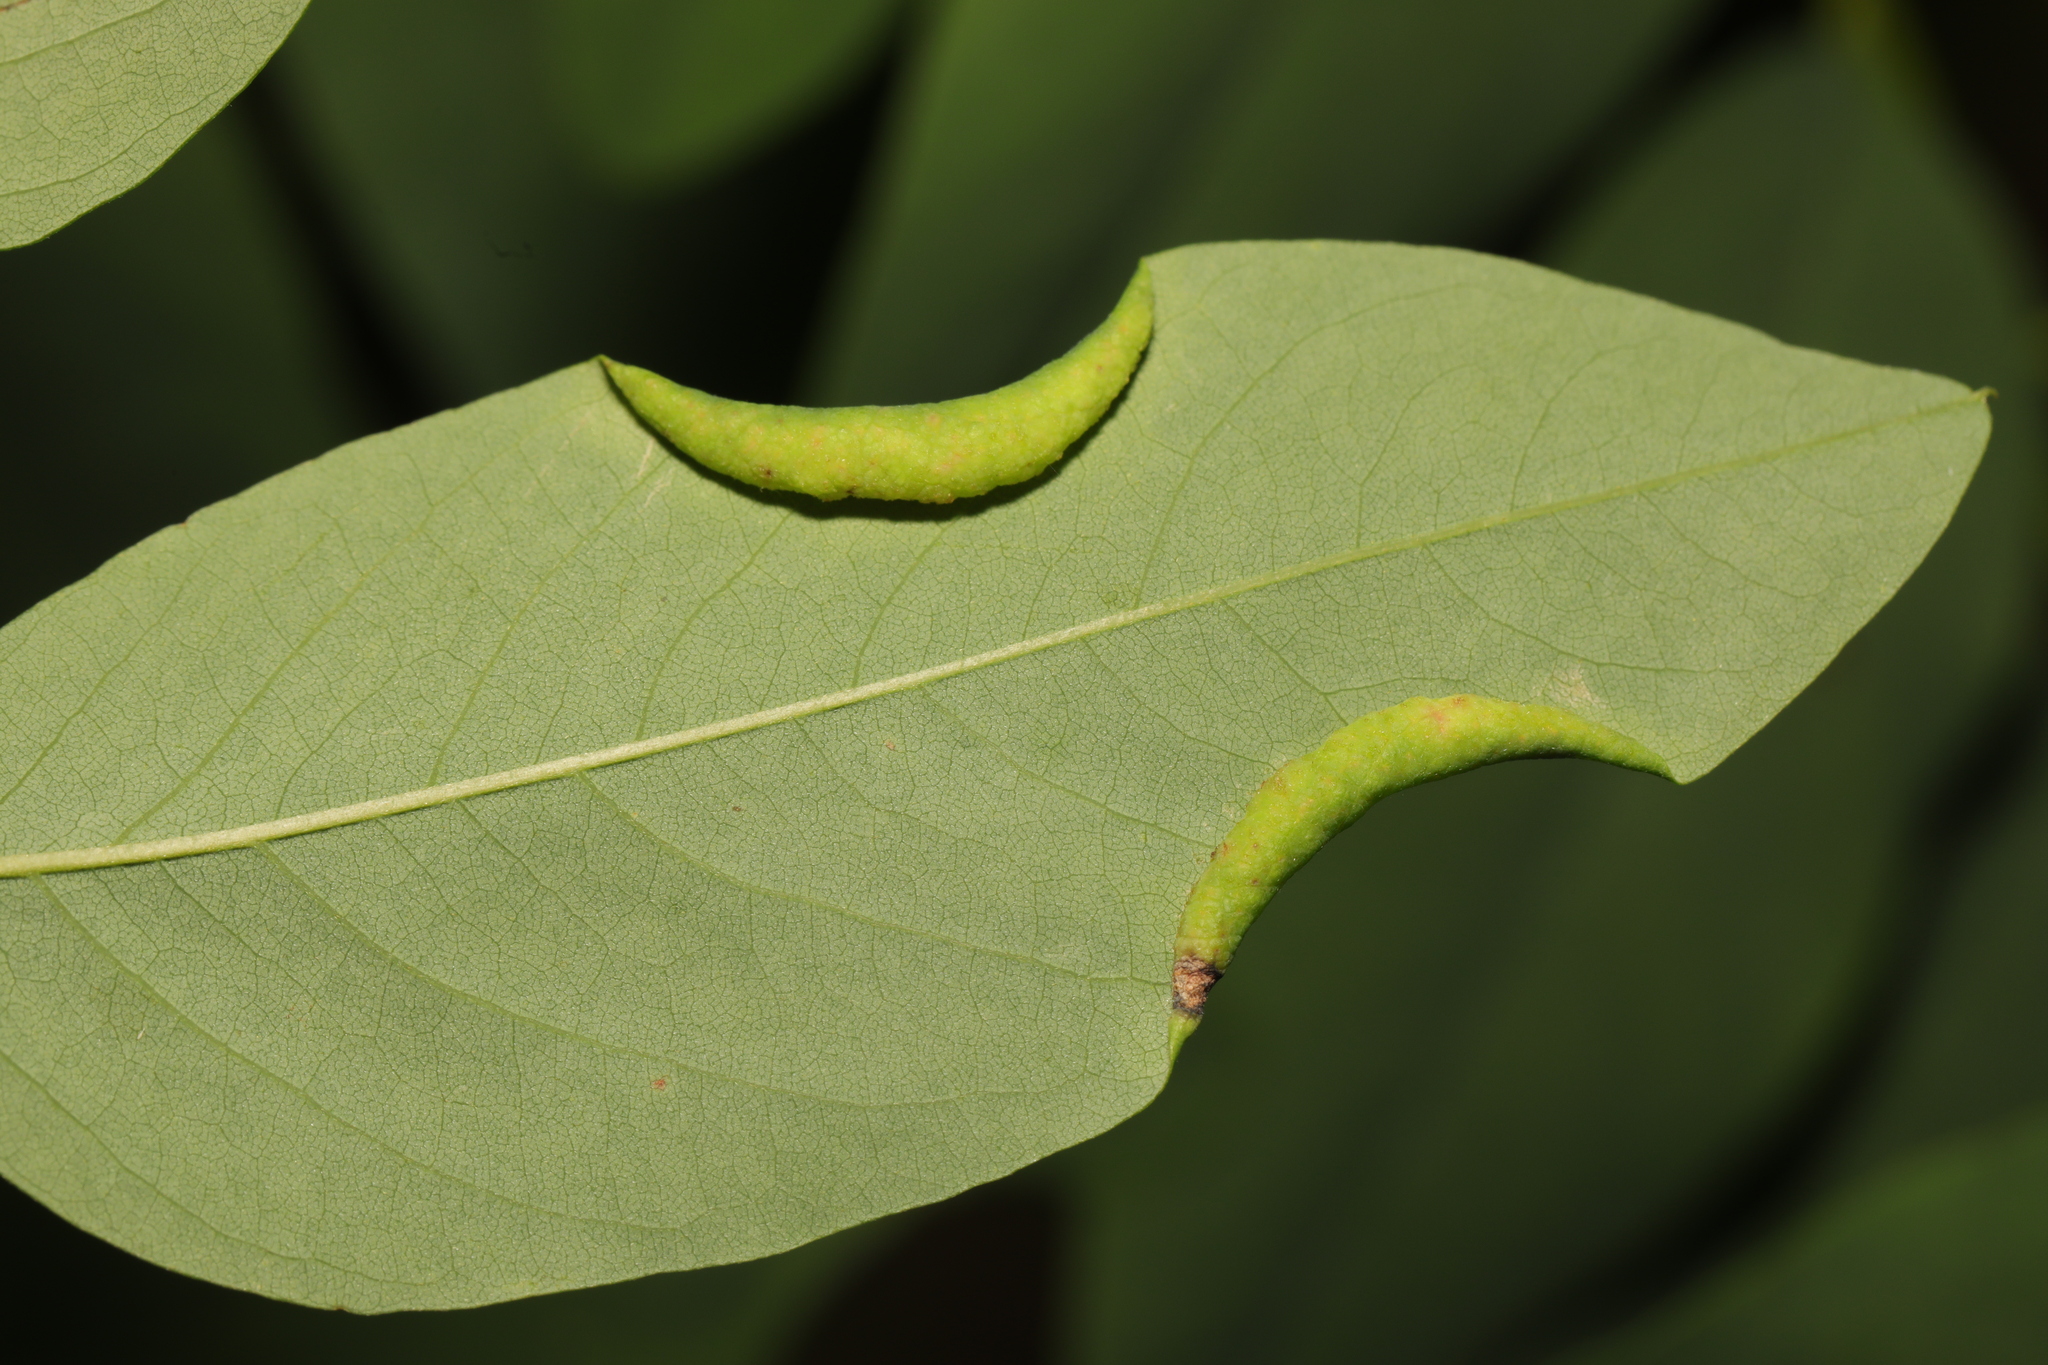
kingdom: Animalia
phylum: Arthropoda
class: Insecta
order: Diptera
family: Cecidomyiidae
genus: Obolodiplosis
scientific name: Obolodiplosis robiniae
